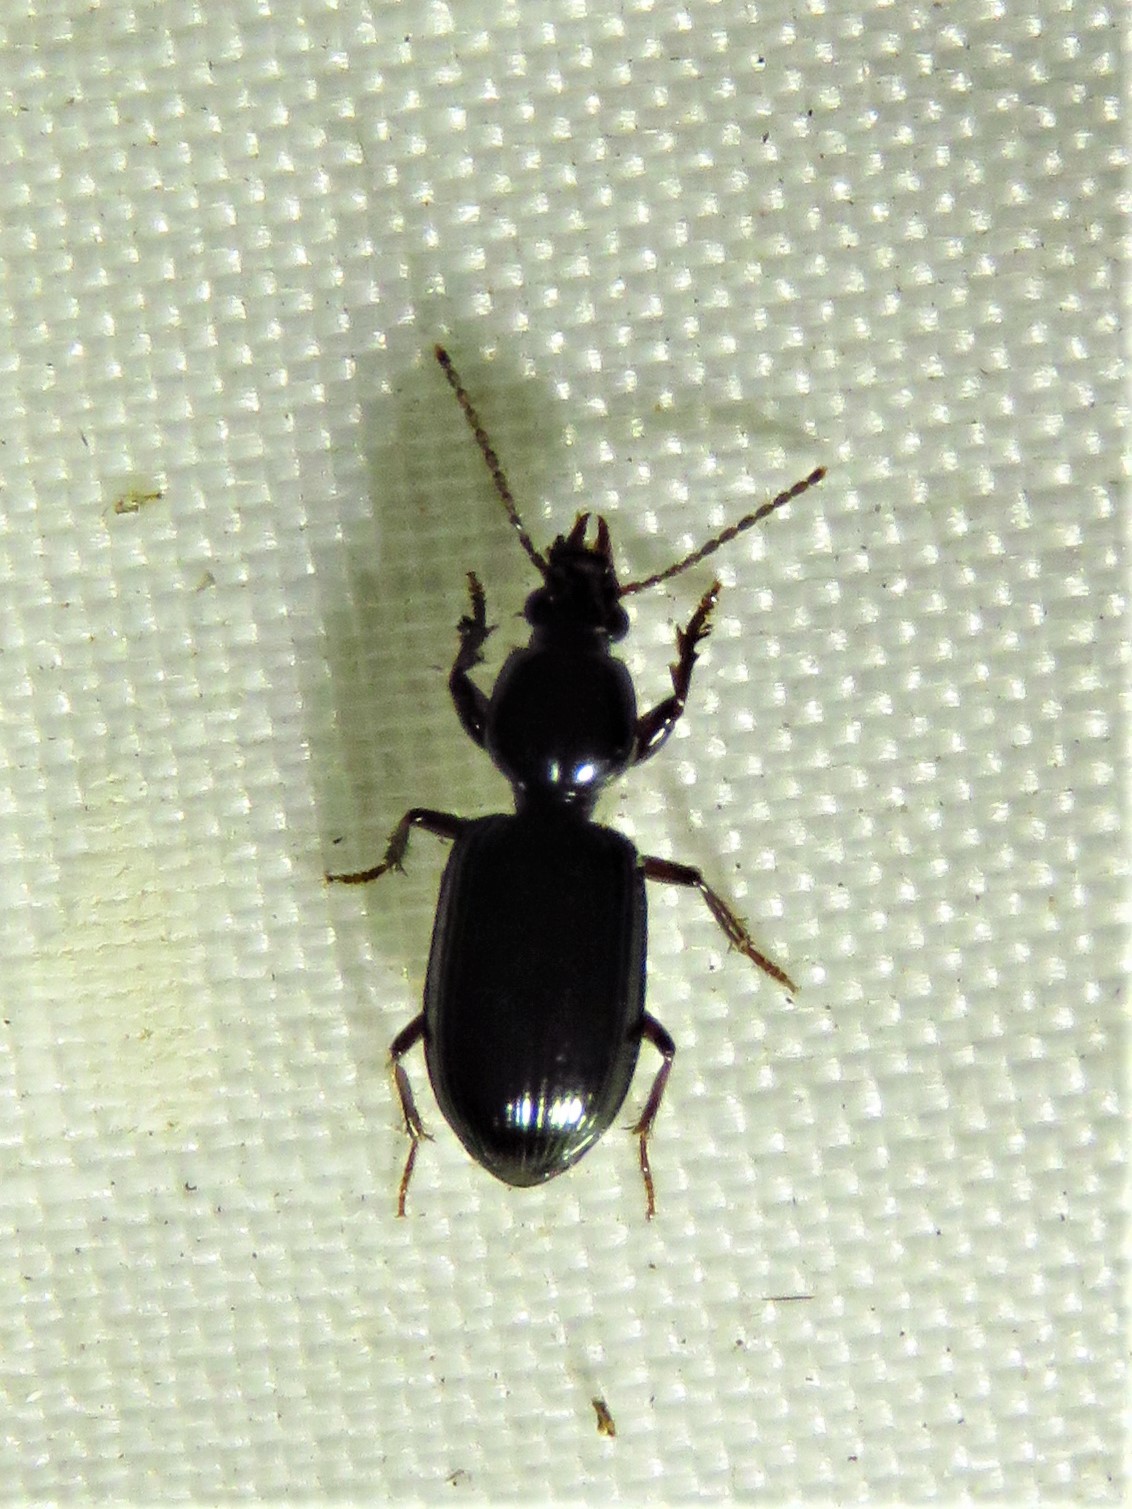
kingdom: Animalia
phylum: Arthropoda
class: Insecta
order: Coleoptera
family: Carabidae
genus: Ardistomis
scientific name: Ardistomis schaumii
